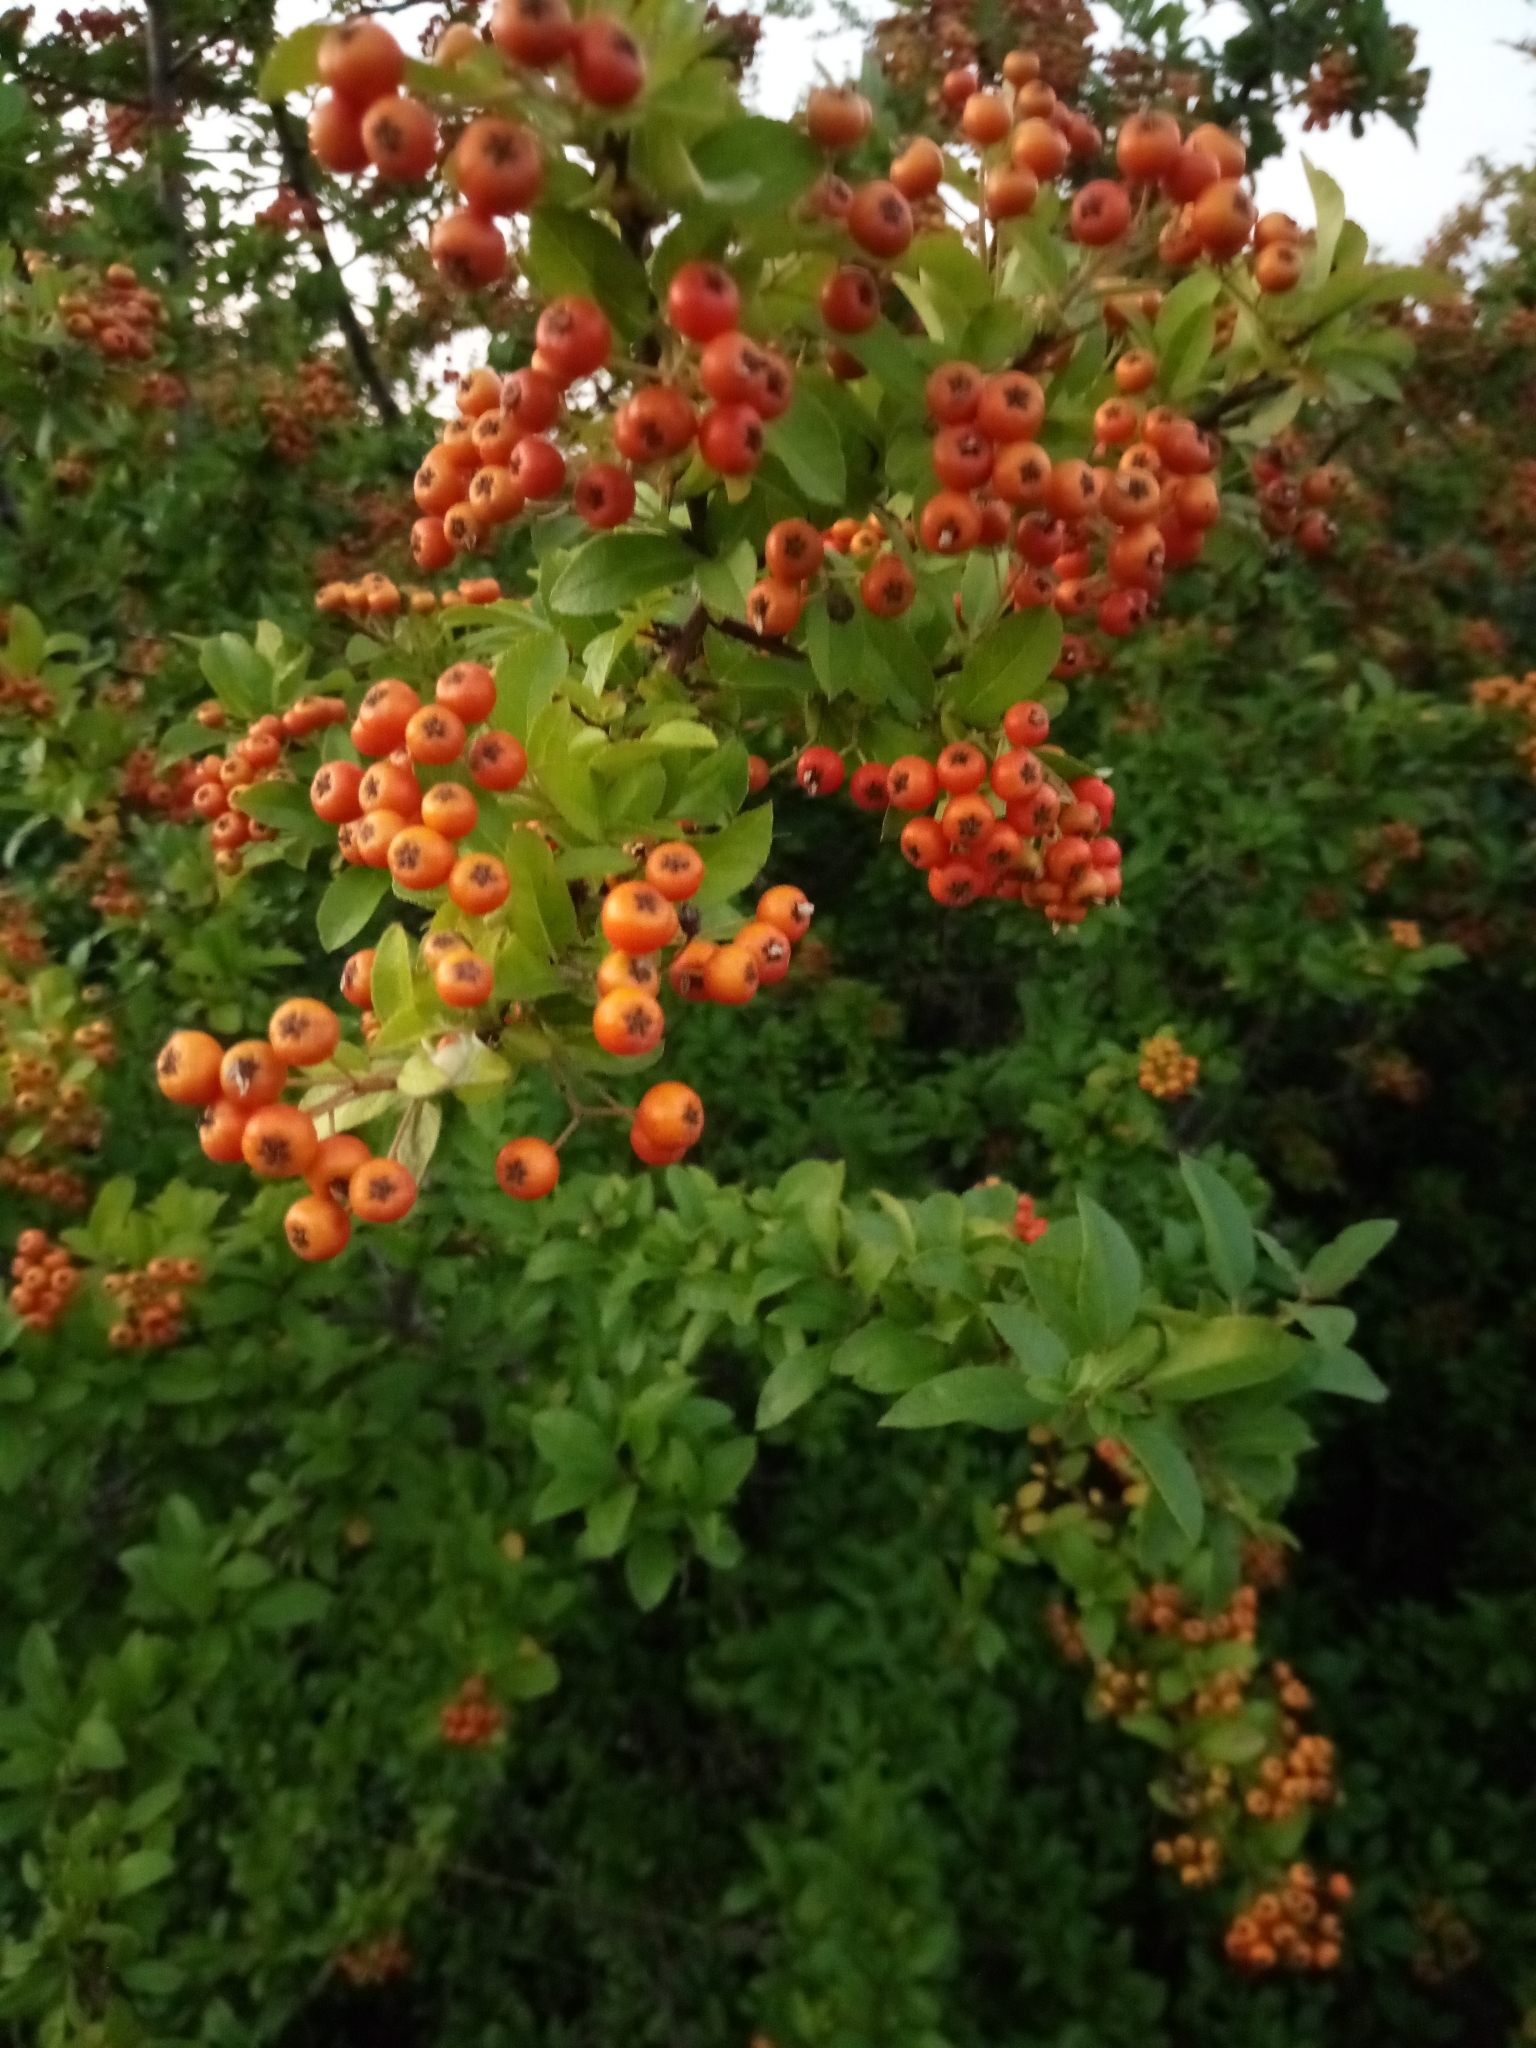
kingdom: Plantae
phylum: Tracheophyta
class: Magnoliopsida
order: Rosales
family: Rosaceae
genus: Pyracantha
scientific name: Pyracantha coccinea
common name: Firethorn
